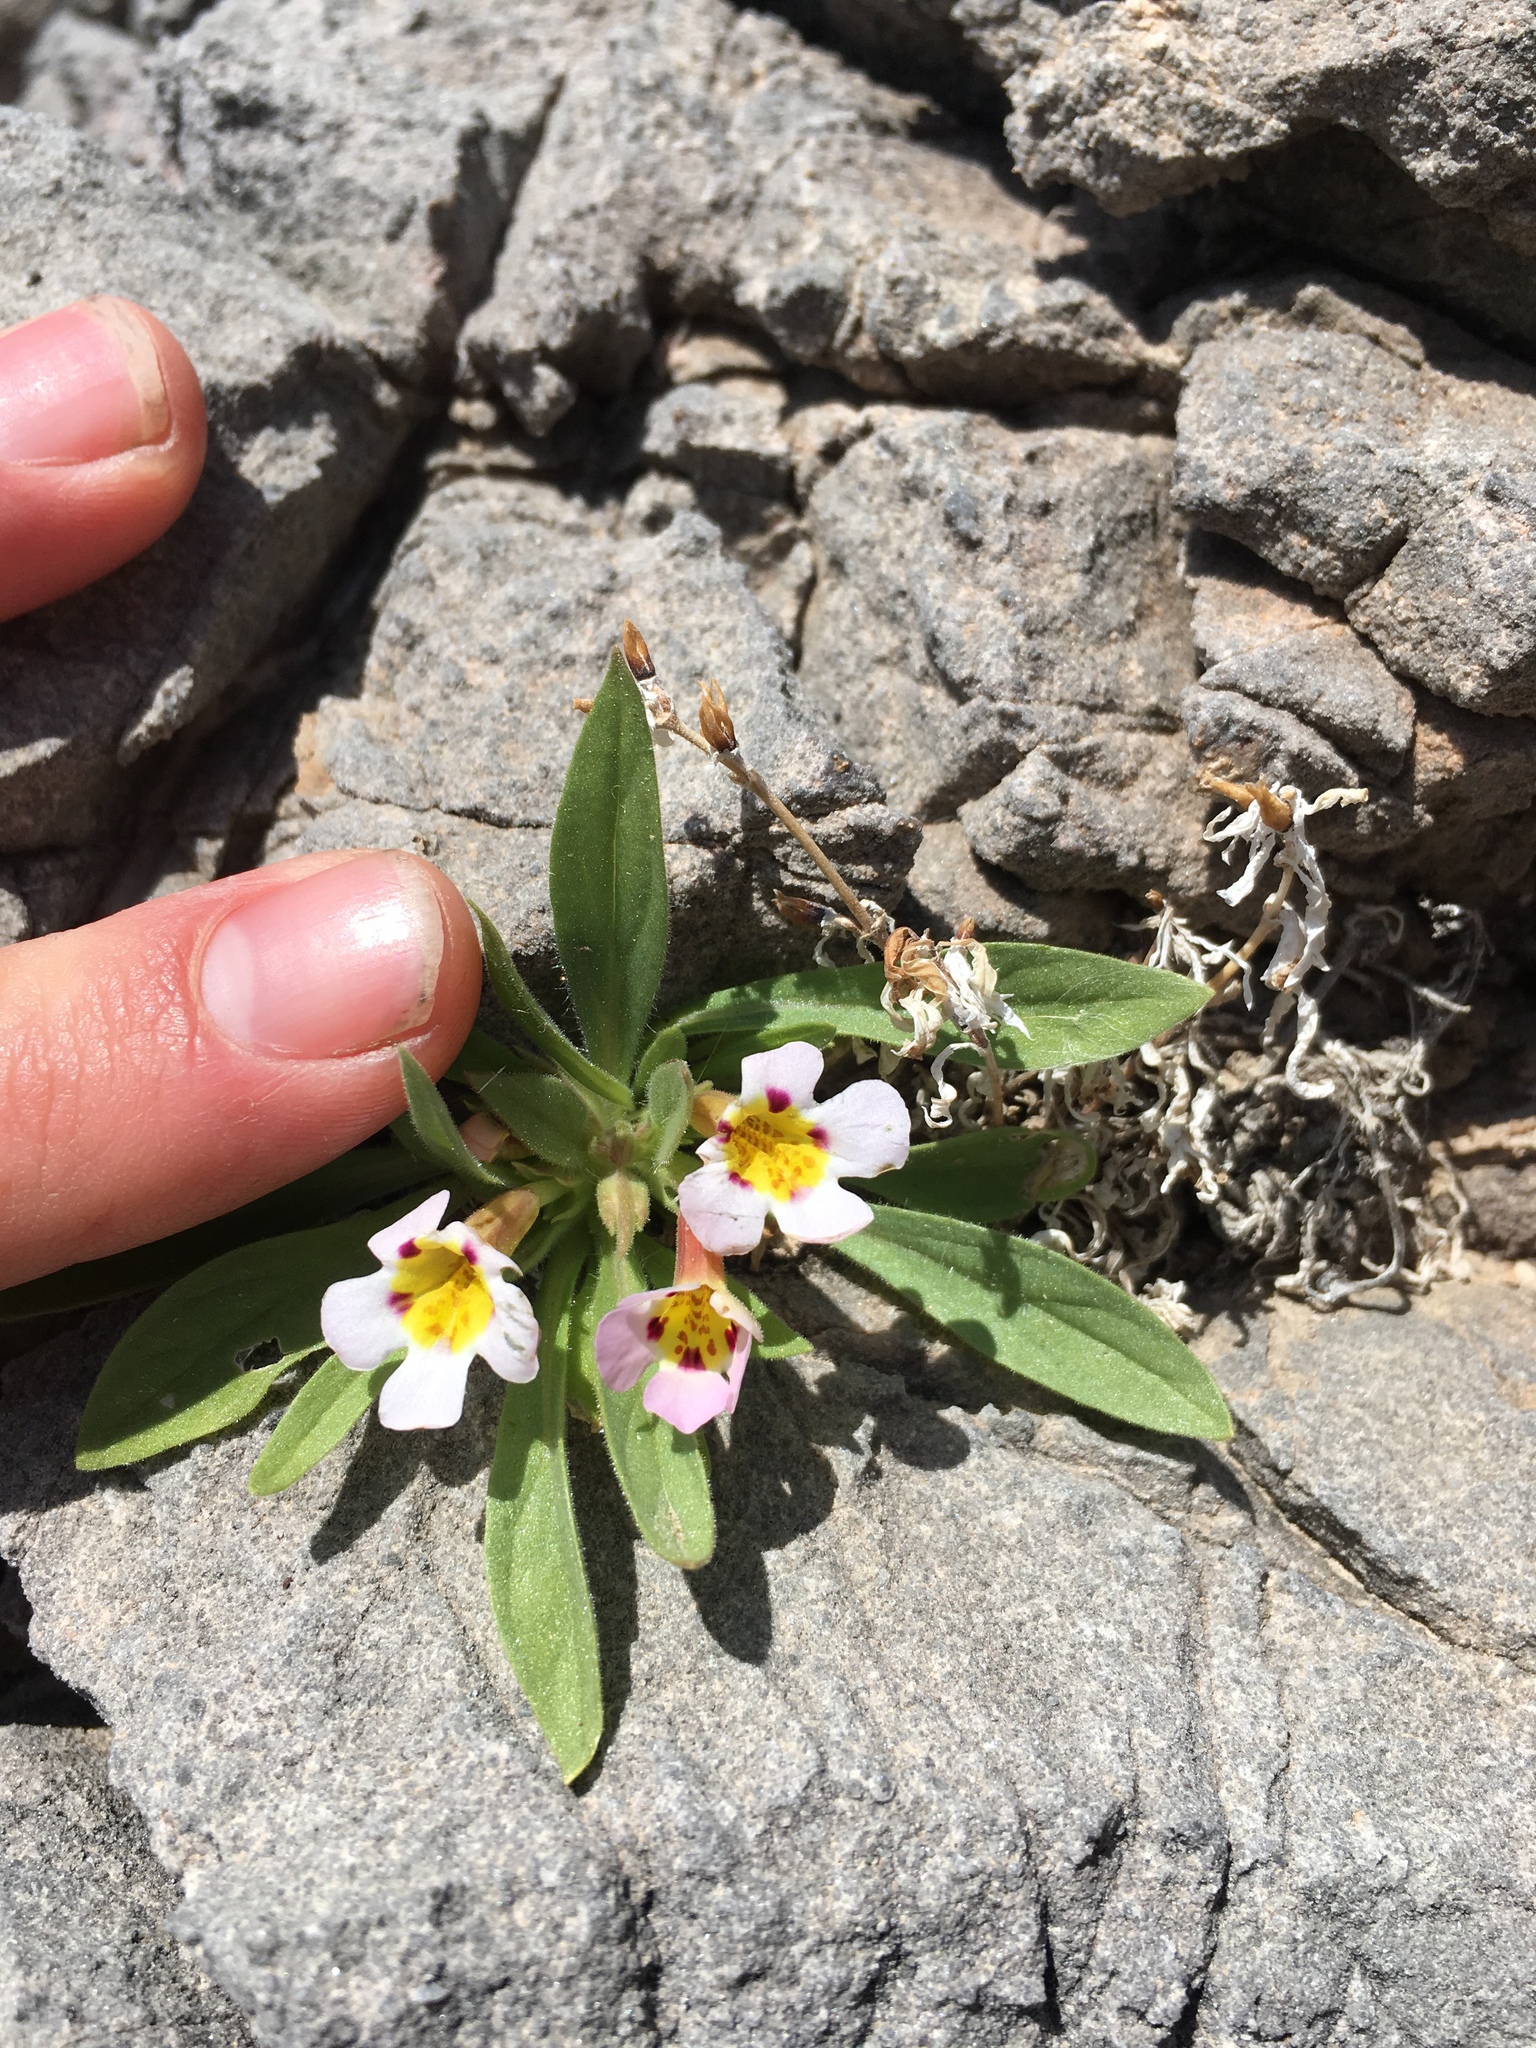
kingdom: Plantae
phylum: Tracheophyta
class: Magnoliopsida
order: Lamiales
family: Phrymaceae
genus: Diplacus
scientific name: Diplacus rupicola
